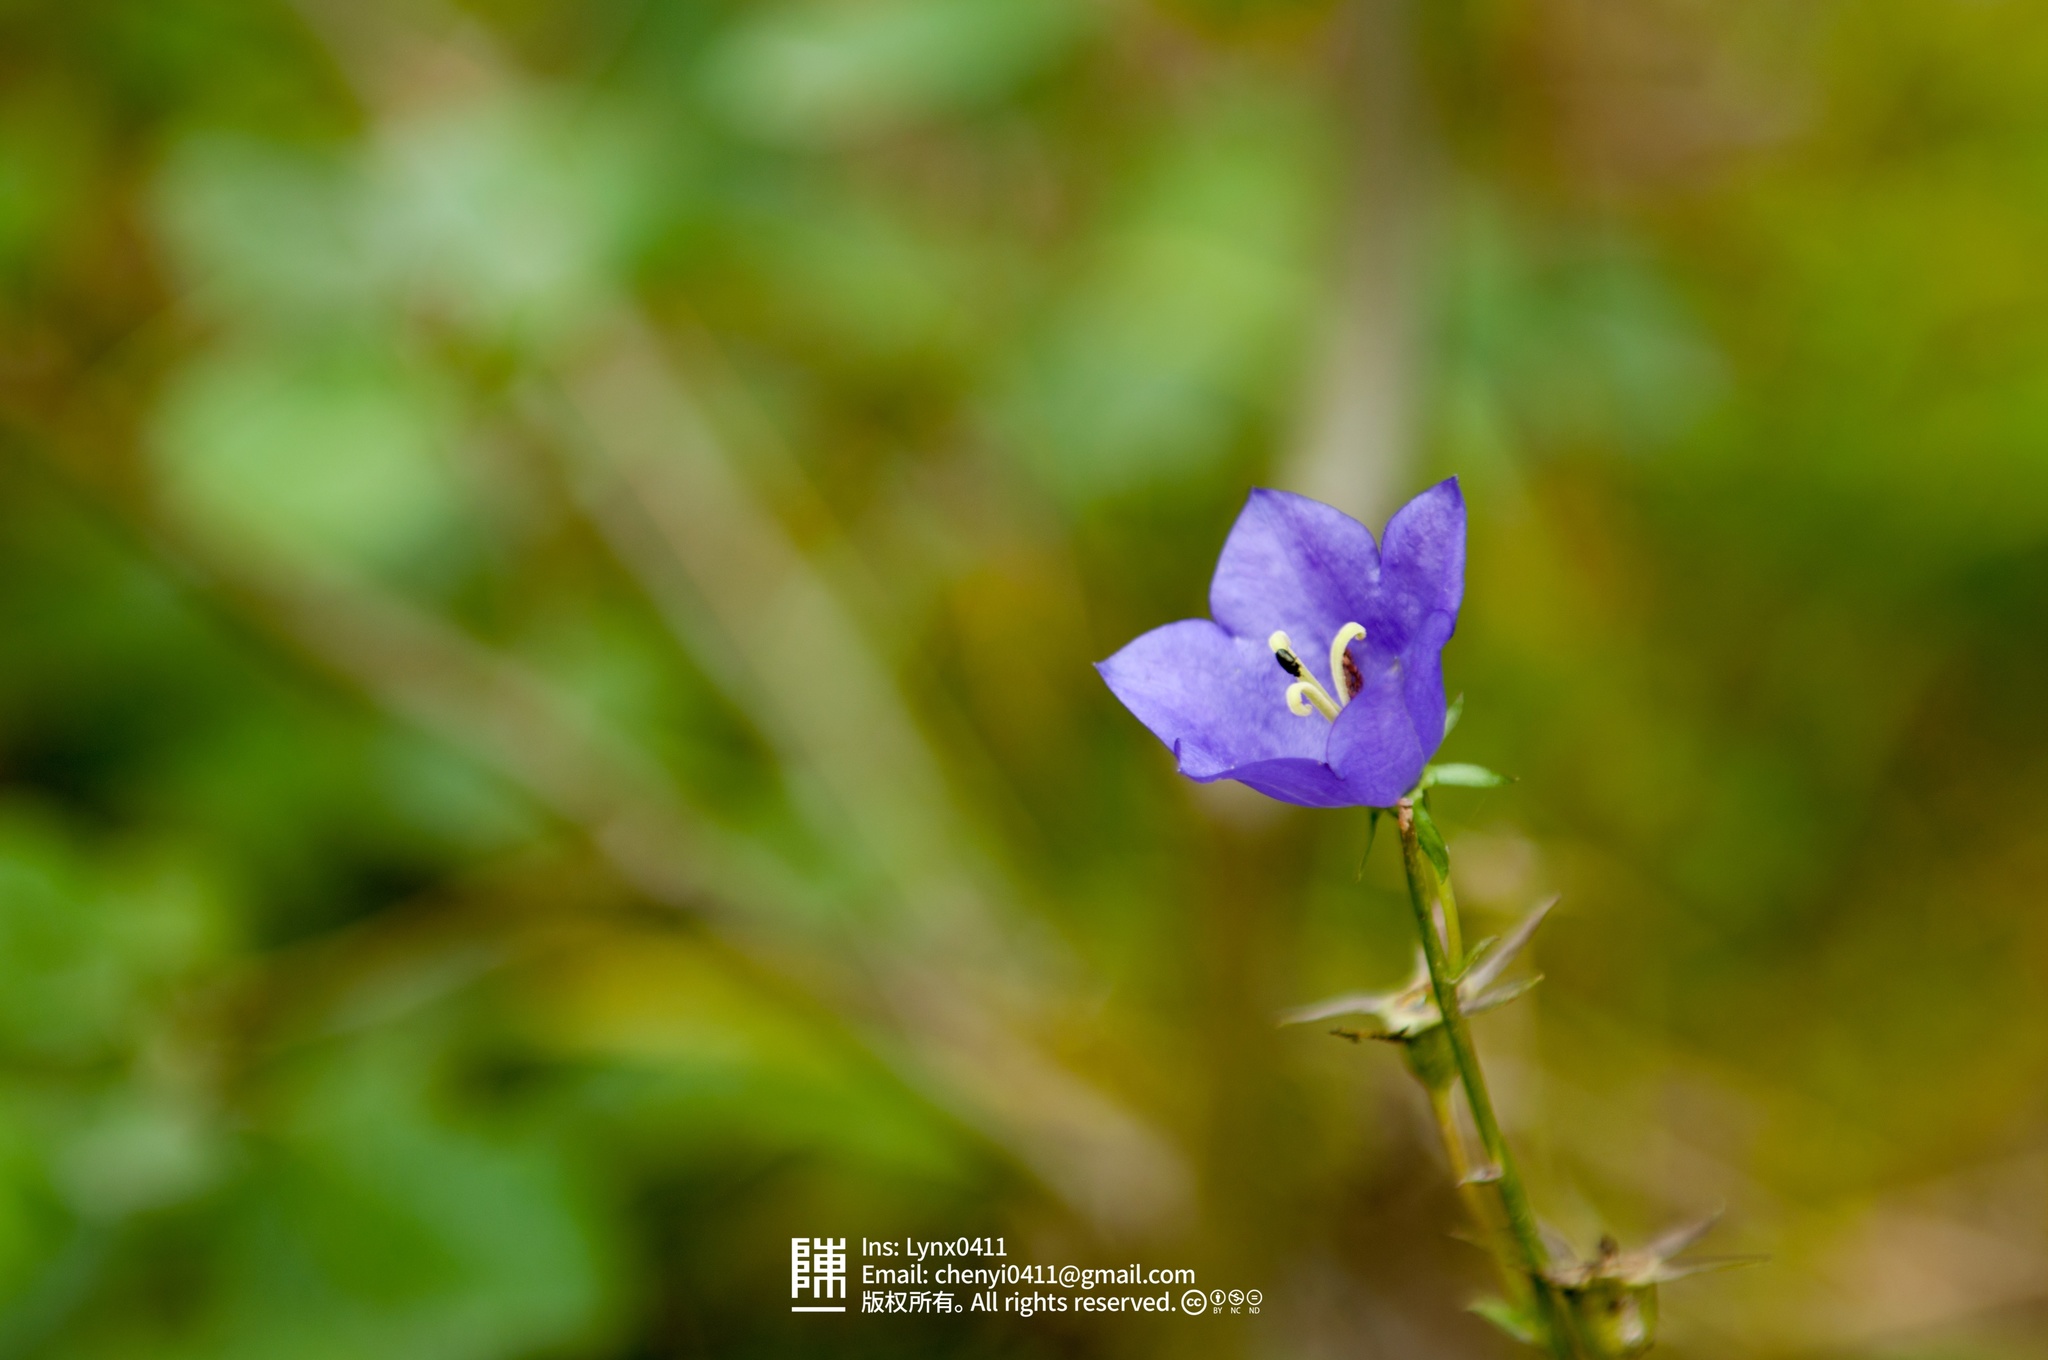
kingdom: Plantae
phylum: Tracheophyta
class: Magnoliopsida
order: Asterales
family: Campanulaceae
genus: Campanula
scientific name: Campanula persicifolia
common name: Peach-leaved bellflower
